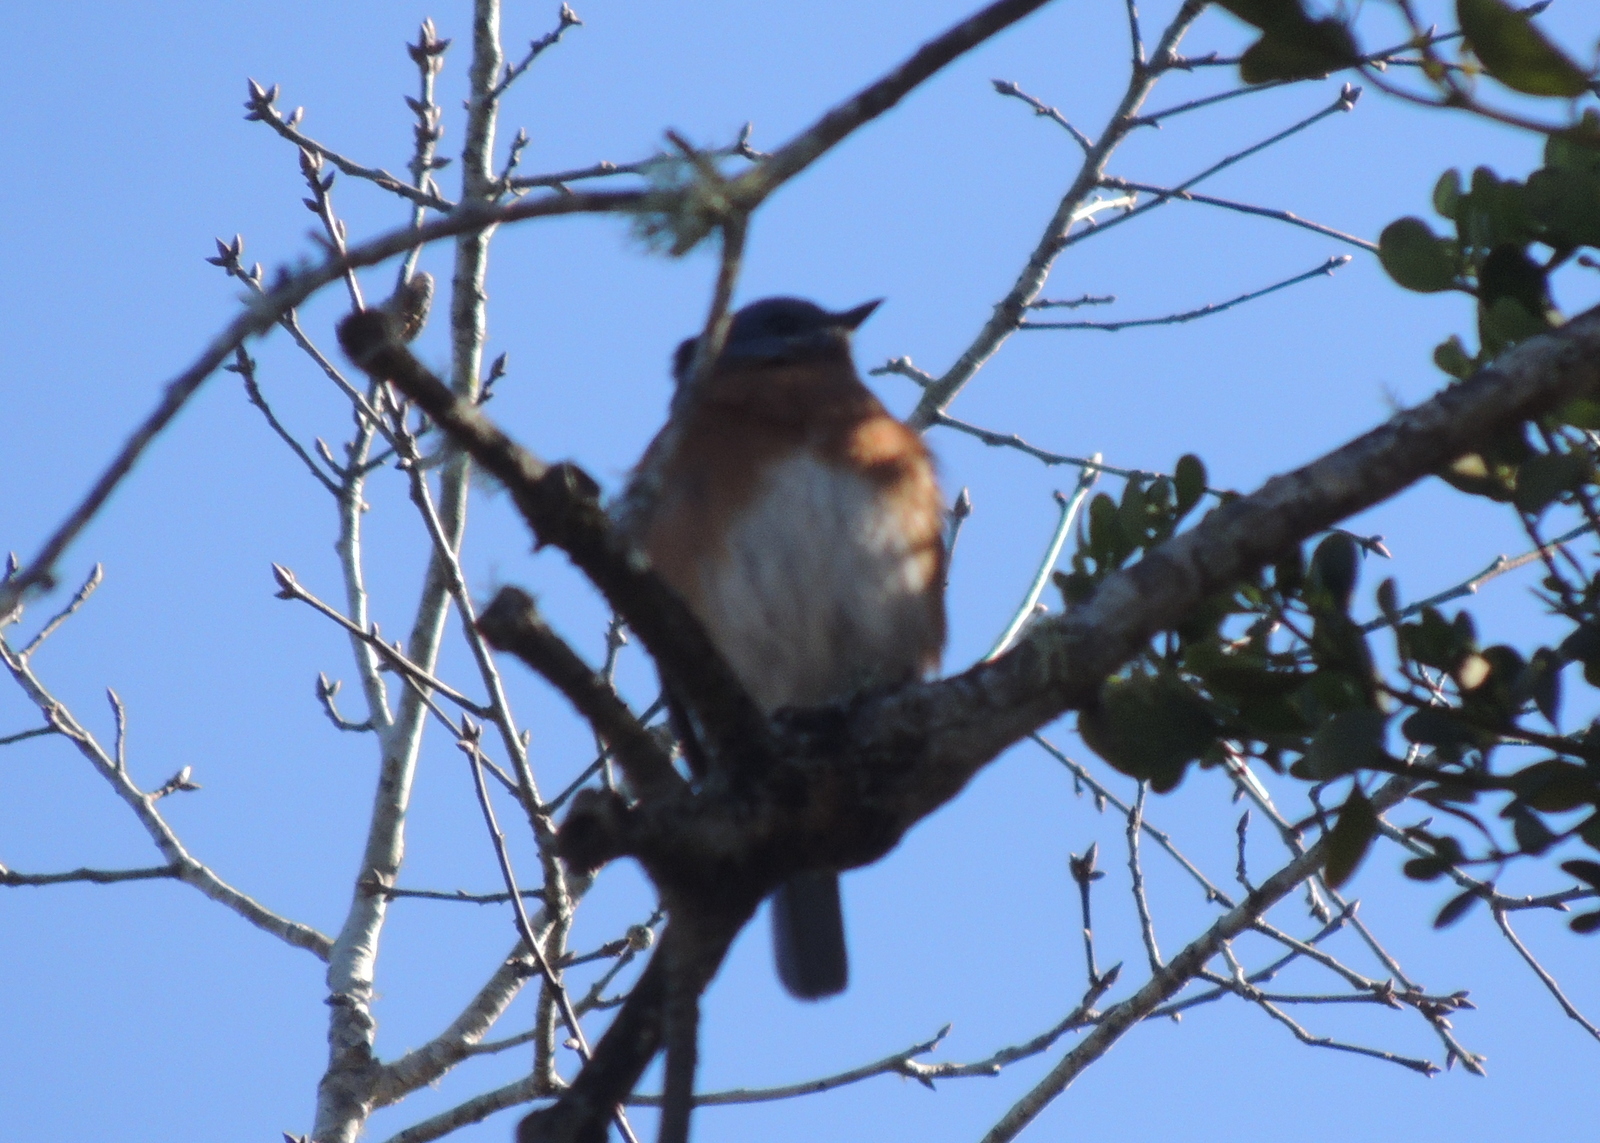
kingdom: Animalia
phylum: Chordata
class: Aves
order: Passeriformes
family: Turdidae
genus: Sialia
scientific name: Sialia sialis
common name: Eastern bluebird
